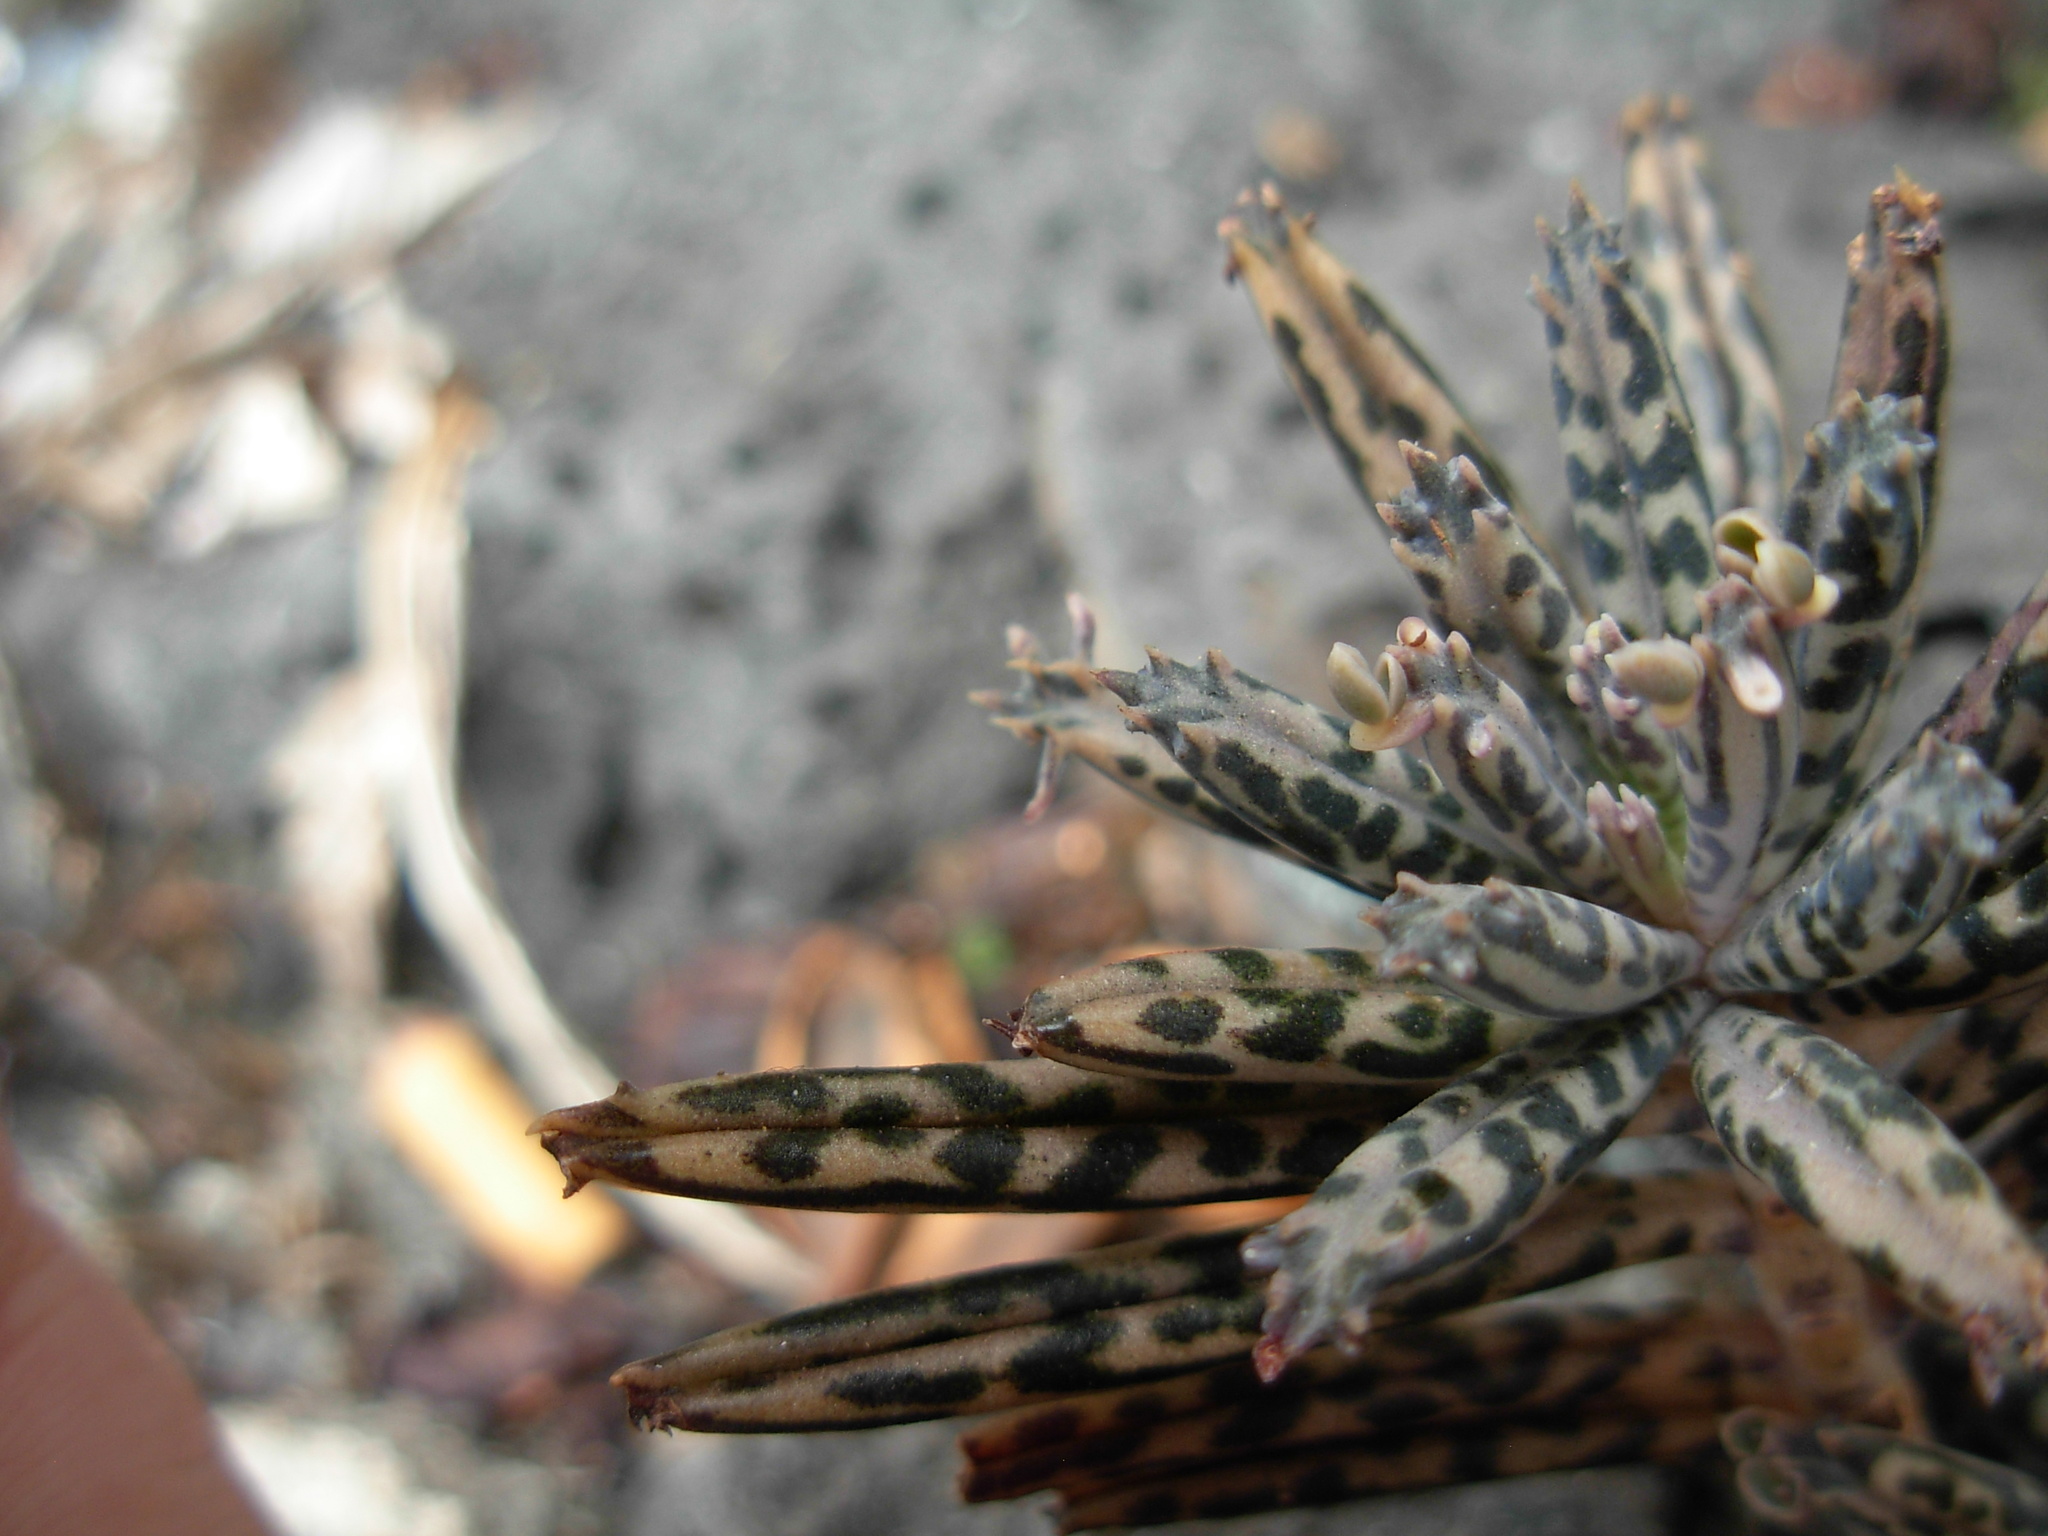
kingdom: Plantae
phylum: Tracheophyta
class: Magnoliopsida
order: Saxifragales
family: Crassulaceae
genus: Kalanchoe
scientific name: Kalanchoe delagoensis
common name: Chandelier plant
